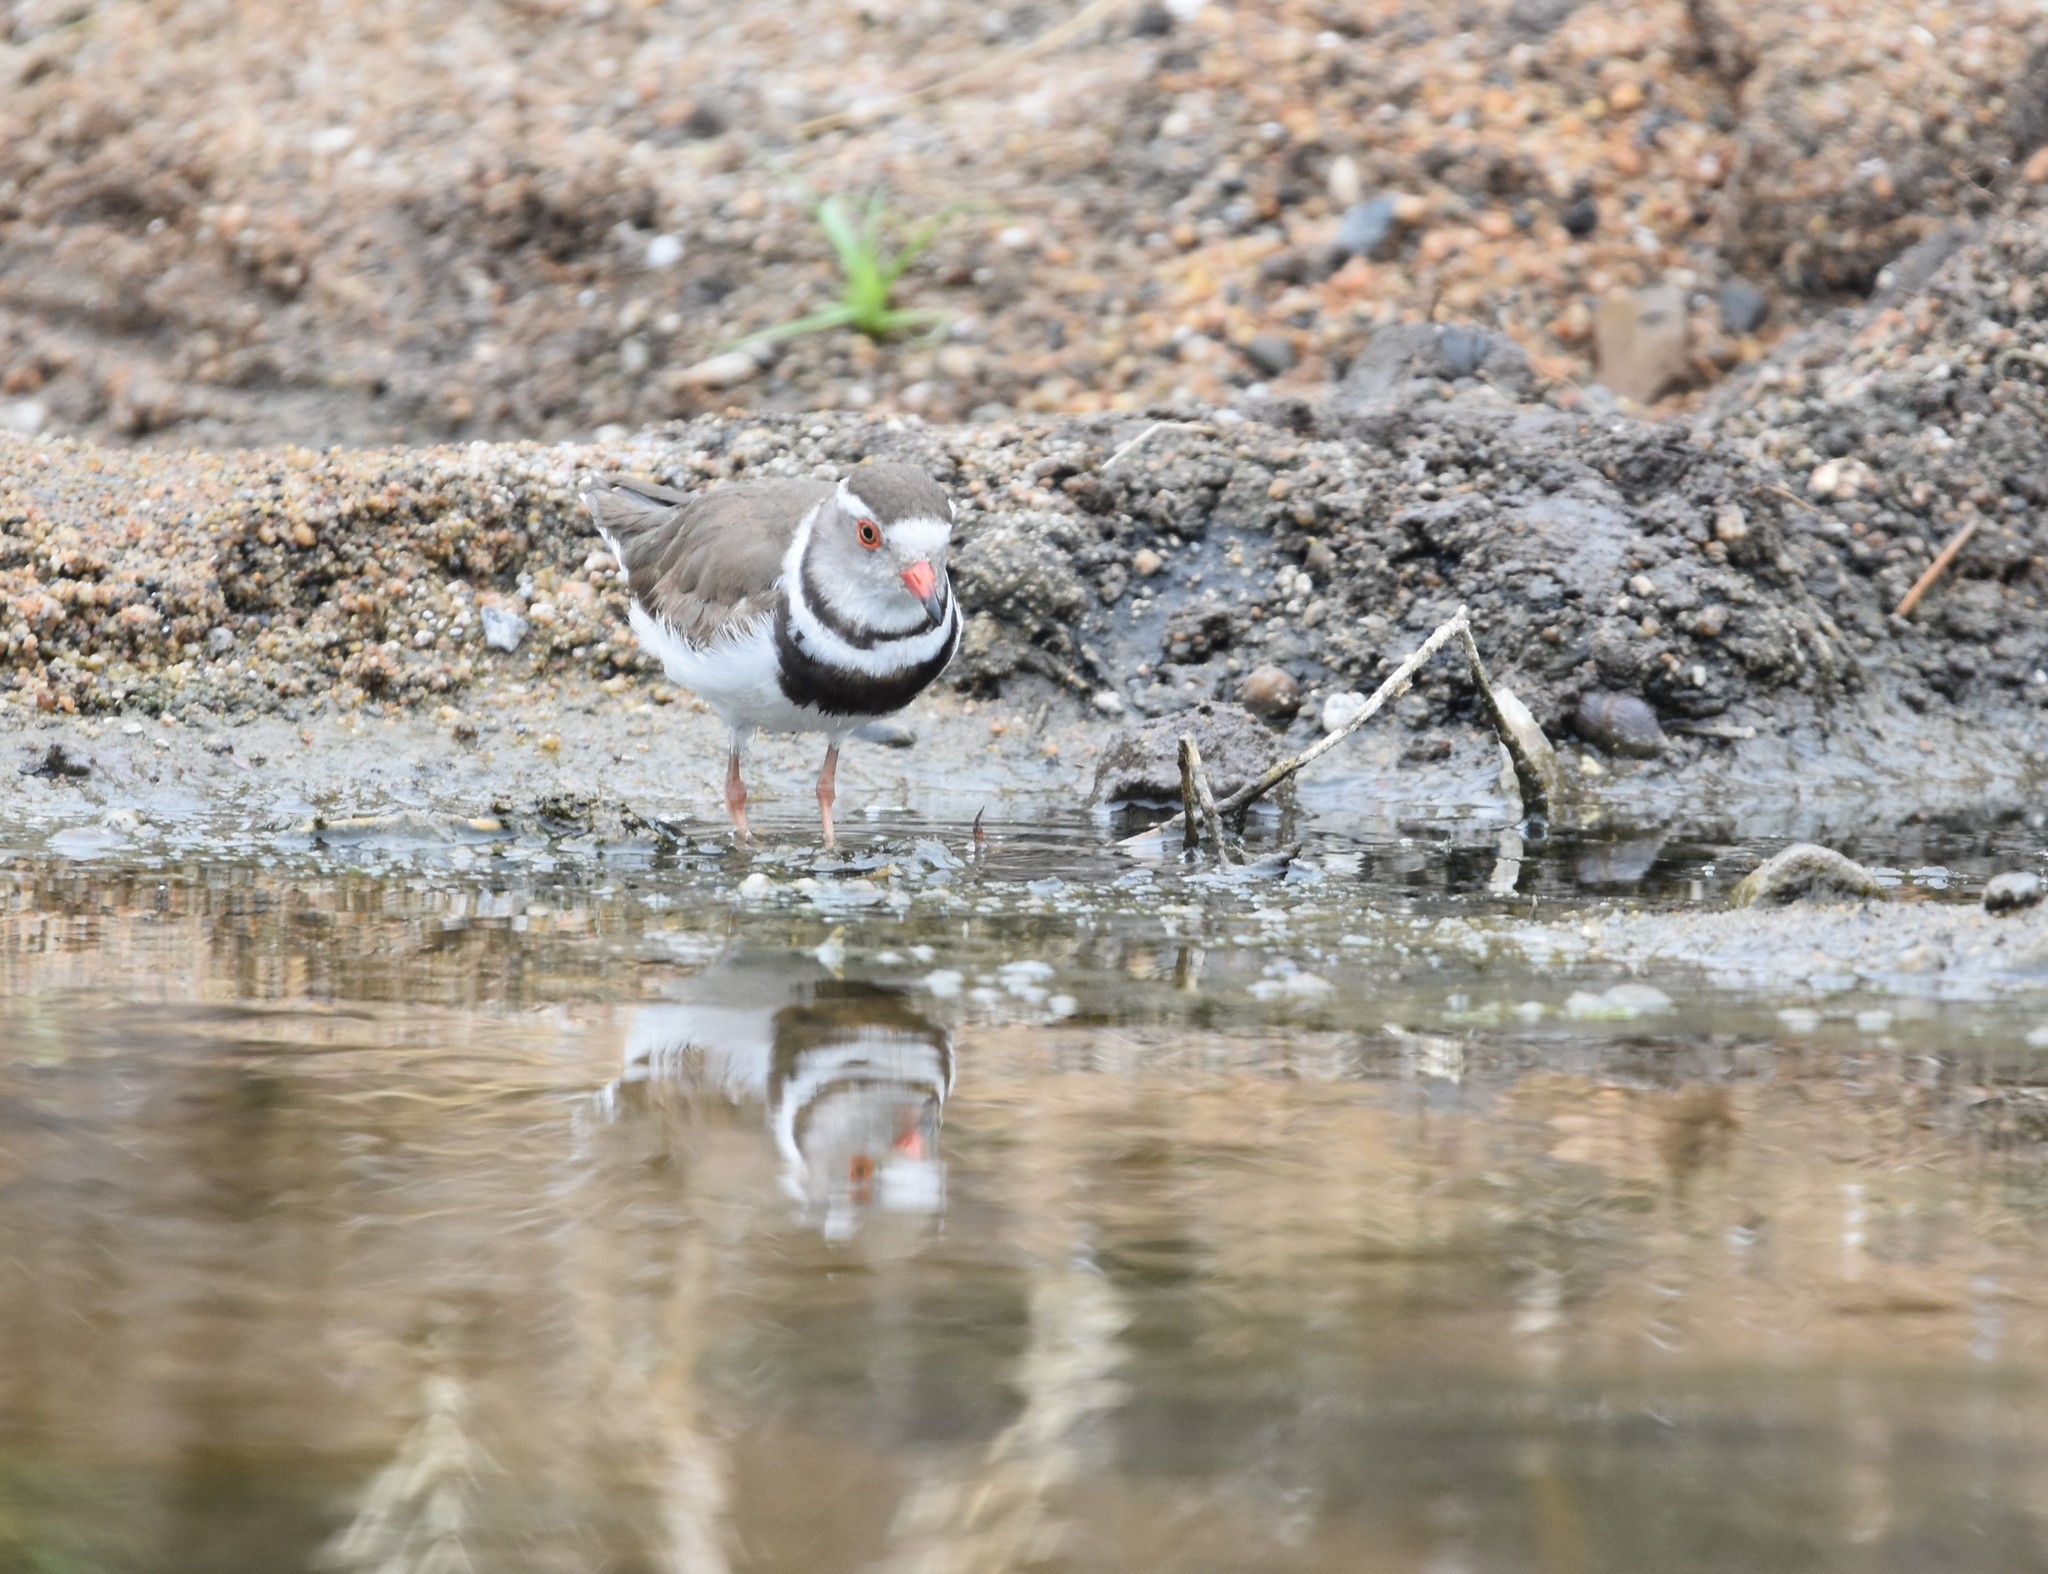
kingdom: Animalia
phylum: Chordata
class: Aves
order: Charadriiformes
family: Charadriidae
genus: Charadrius
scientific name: Charadrius tricollaris
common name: Three-banded plover
